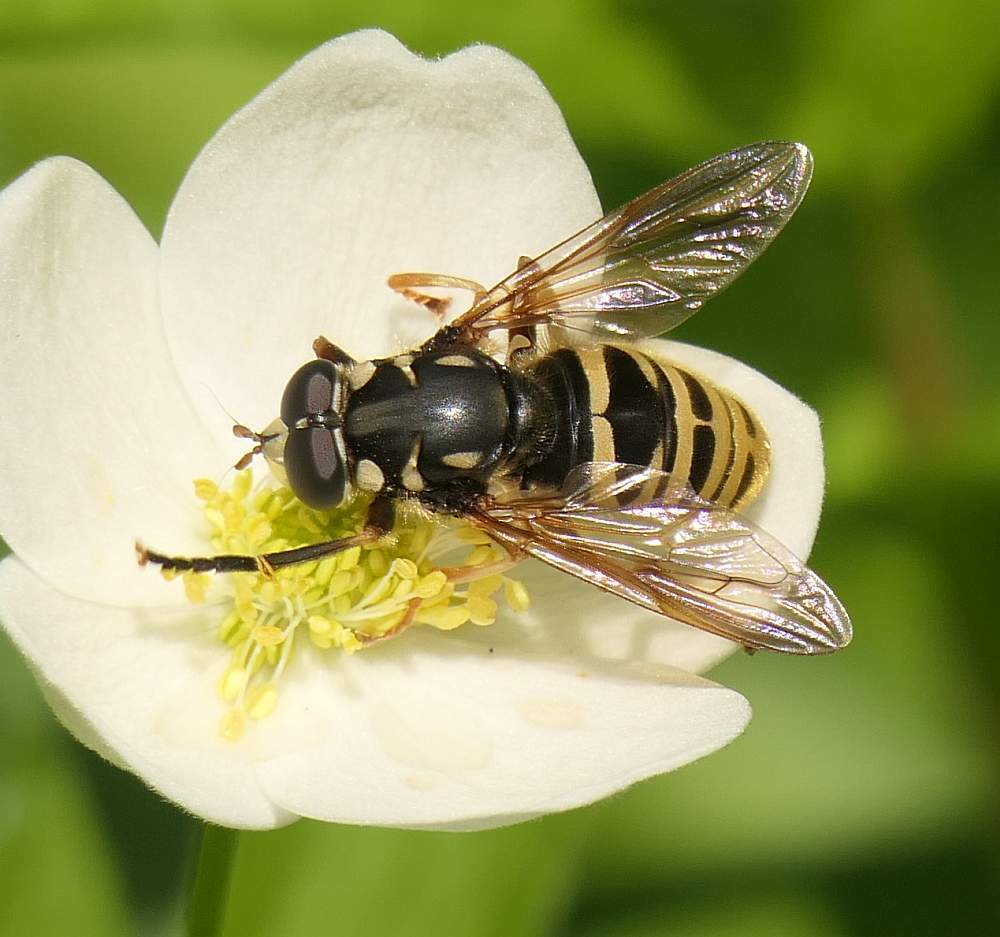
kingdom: Animalia
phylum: Arthropoda
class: Insecta
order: Diptera
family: Syrphidae
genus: Temnostoma
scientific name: Temnostoma excentricum
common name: Black-spotted falsehorn
